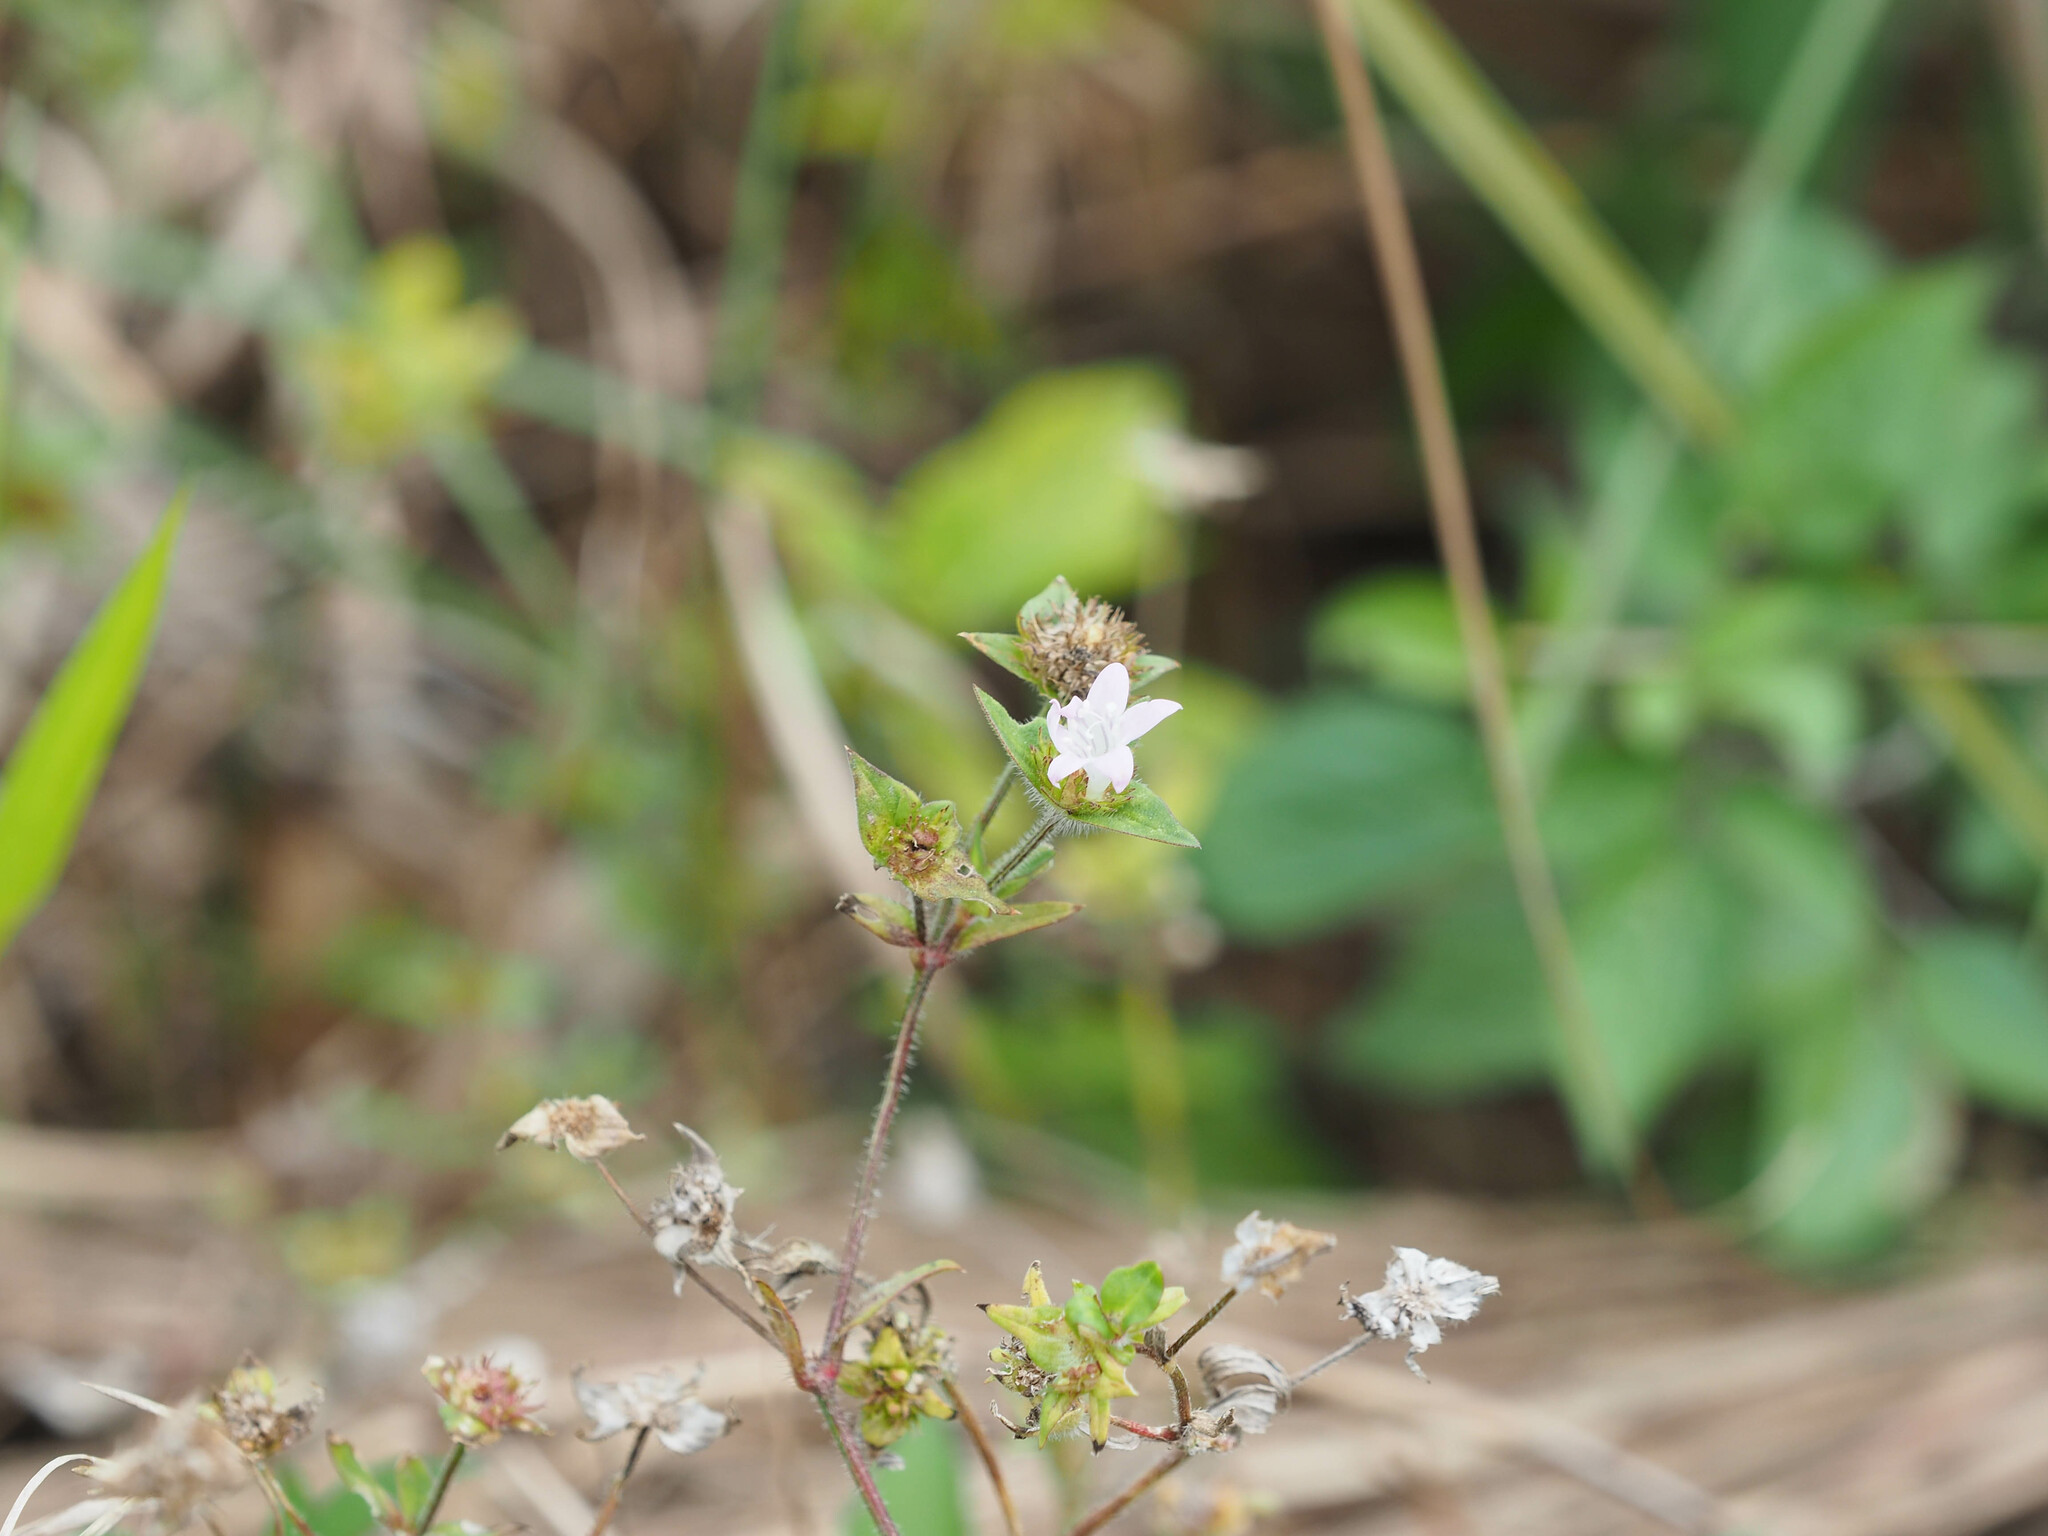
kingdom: Plantae
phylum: Tracheophyta
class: Magnoliopsida
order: Gentianales
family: Rubiaceae
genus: Richardia
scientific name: Richardia grandiflora
